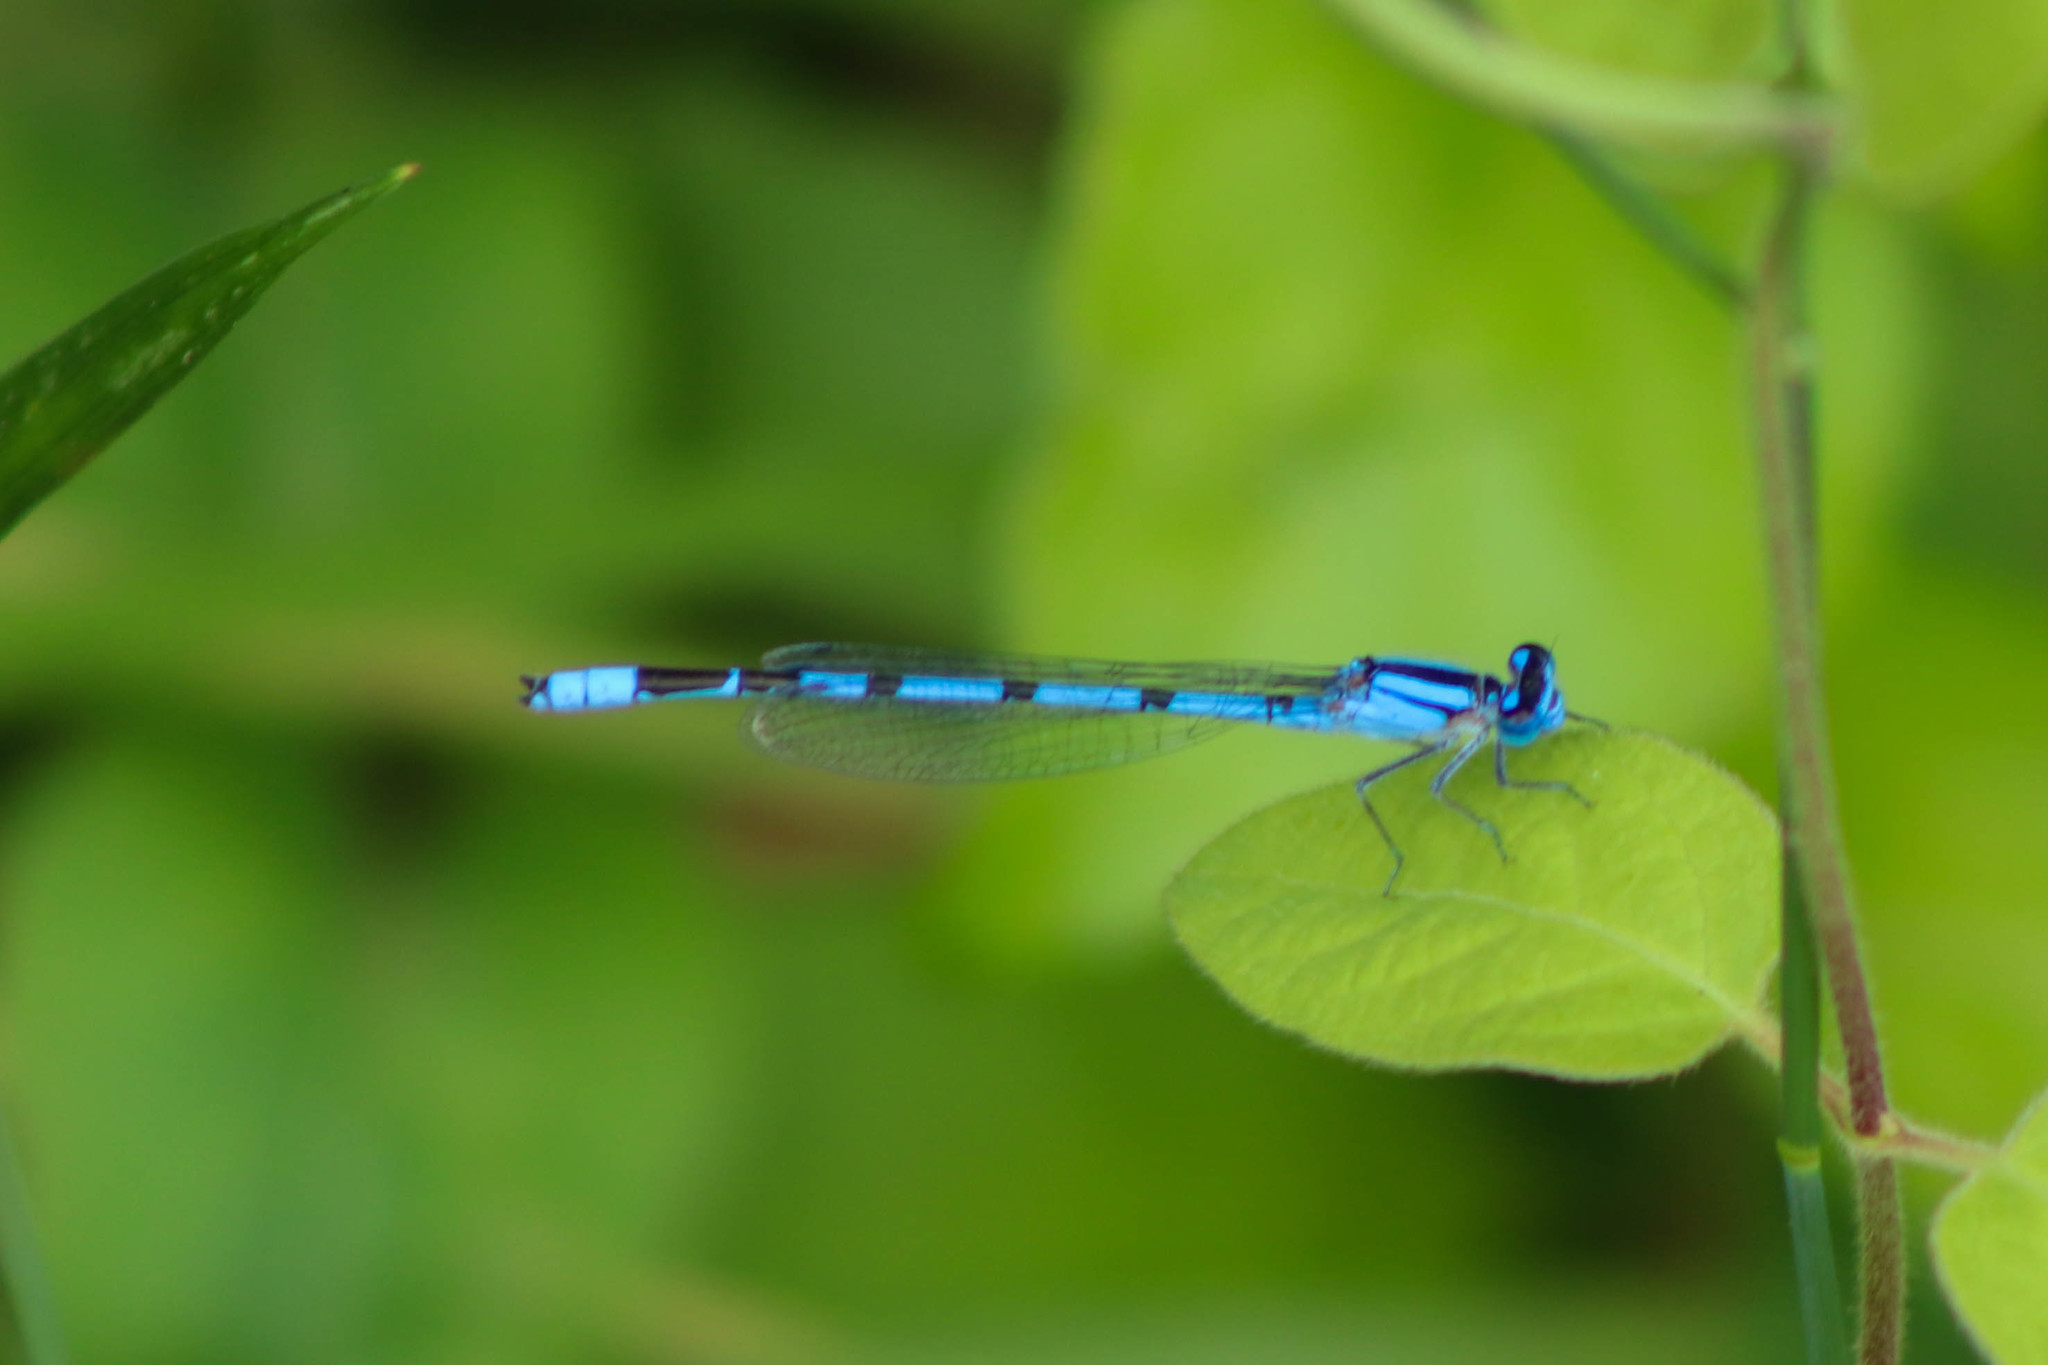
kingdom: Animalia
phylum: Arthropoda
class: Insecta
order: Odonata
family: Coenagrionidae
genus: Enallagma
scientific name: Enallagma civile
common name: Damselfly
